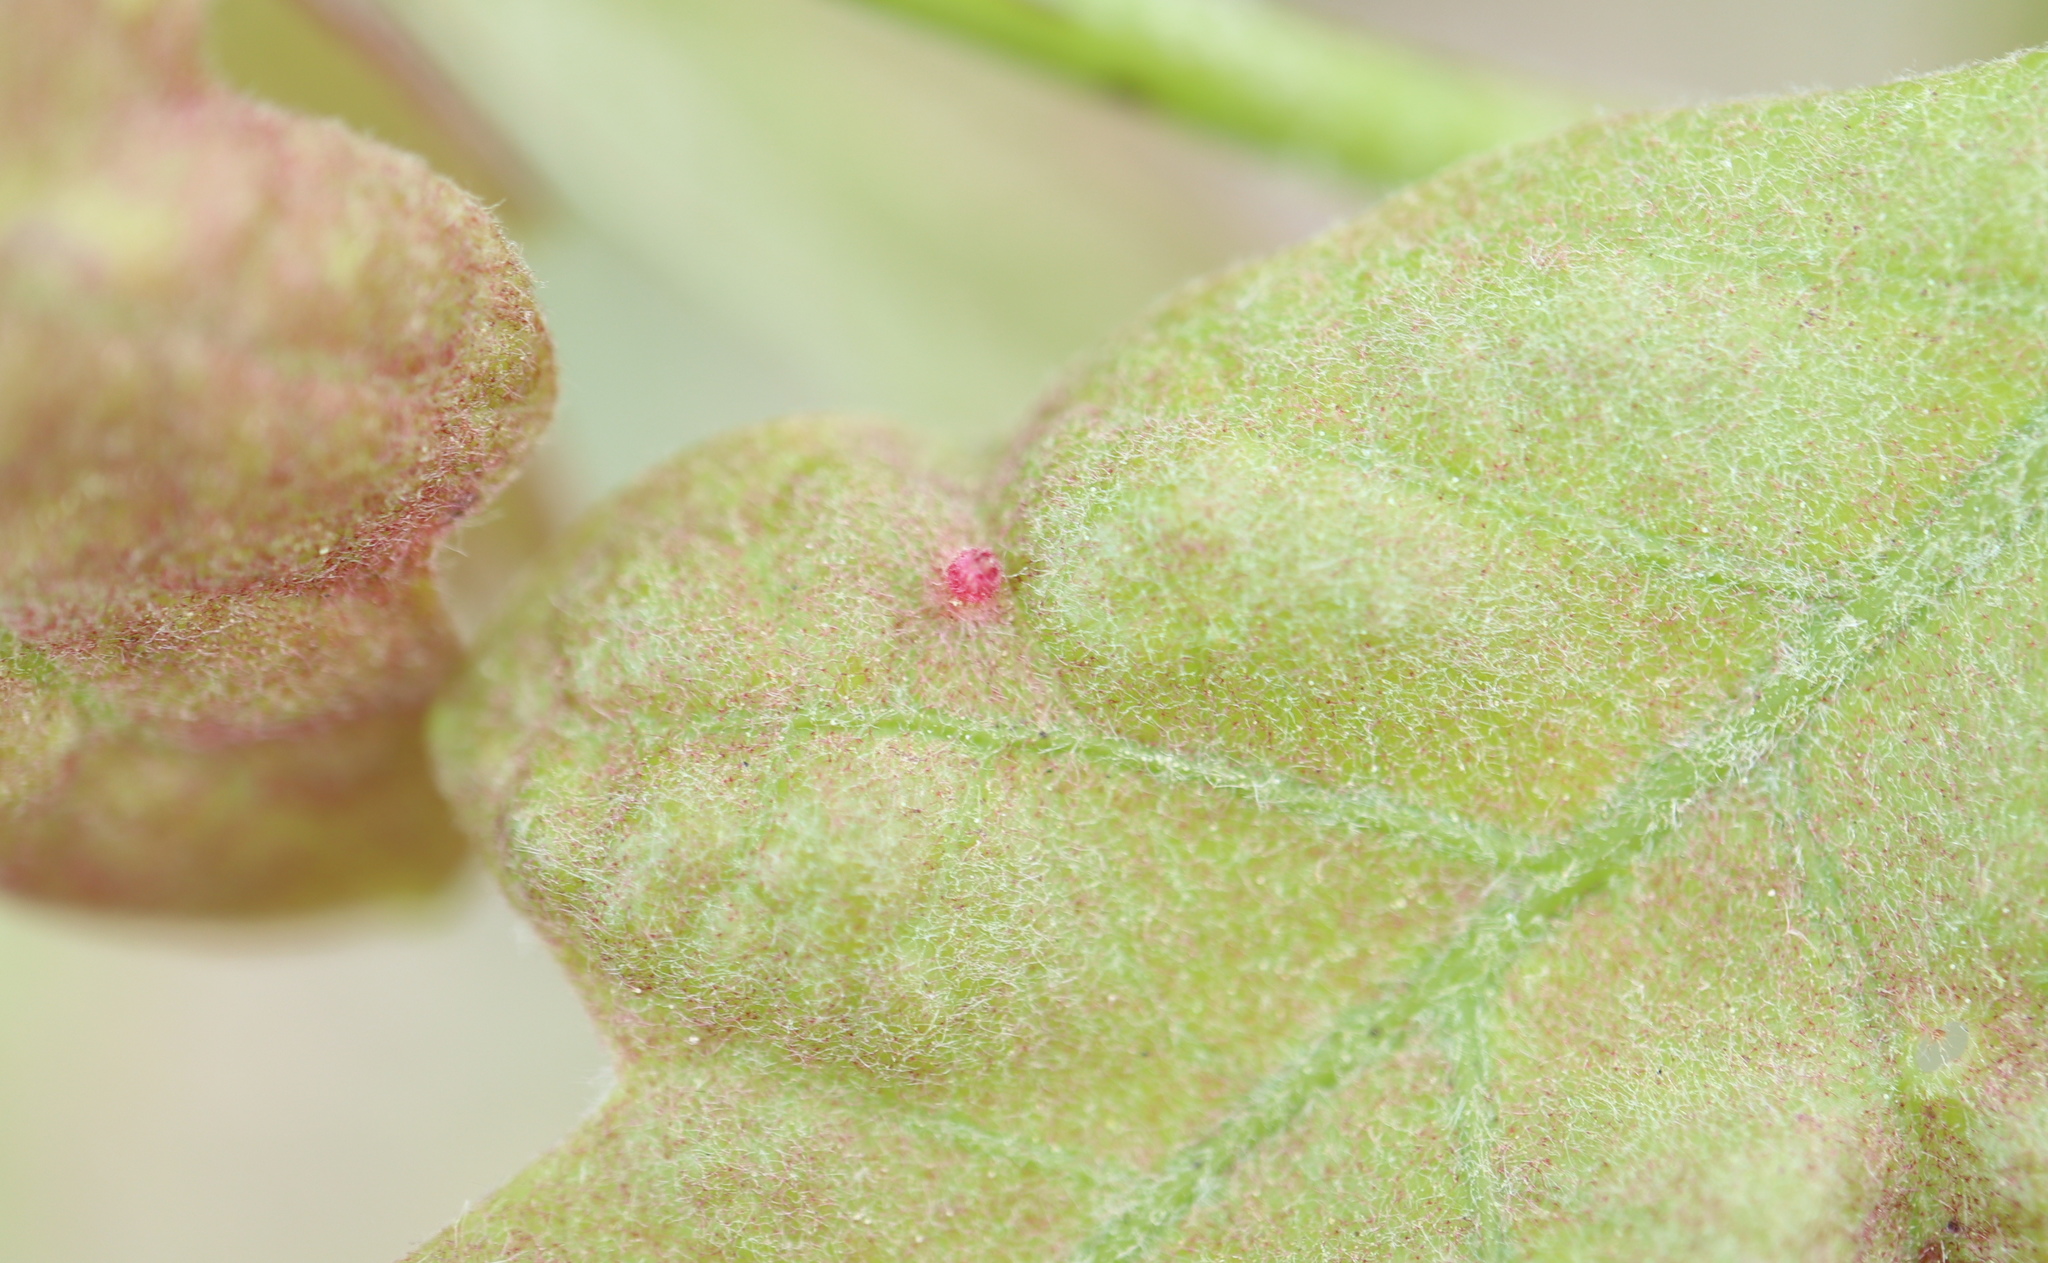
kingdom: Animalia
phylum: Arthropoda
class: Insecta
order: Hymenoptera
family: Cynipidae
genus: Neuroterus
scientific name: Neuroterus
